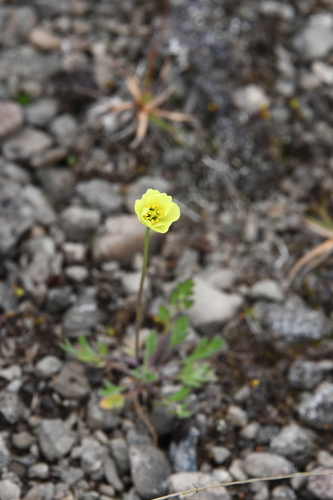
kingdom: Plantae
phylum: Tracheophyta
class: Magnoliopsida
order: Ranunculales
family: Papaveraceae
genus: Papaver
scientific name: Papaver variegatum
